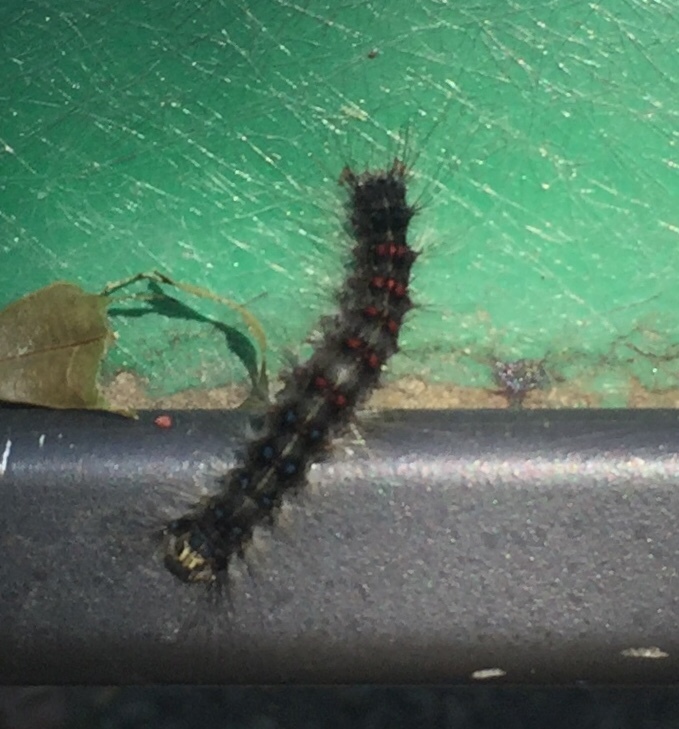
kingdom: Animalia
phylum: Arthropoda
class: Insecta
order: Lepidoptera
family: Erebidae
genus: Lymantria
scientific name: Lymantria dispar
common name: Gypsy moth
